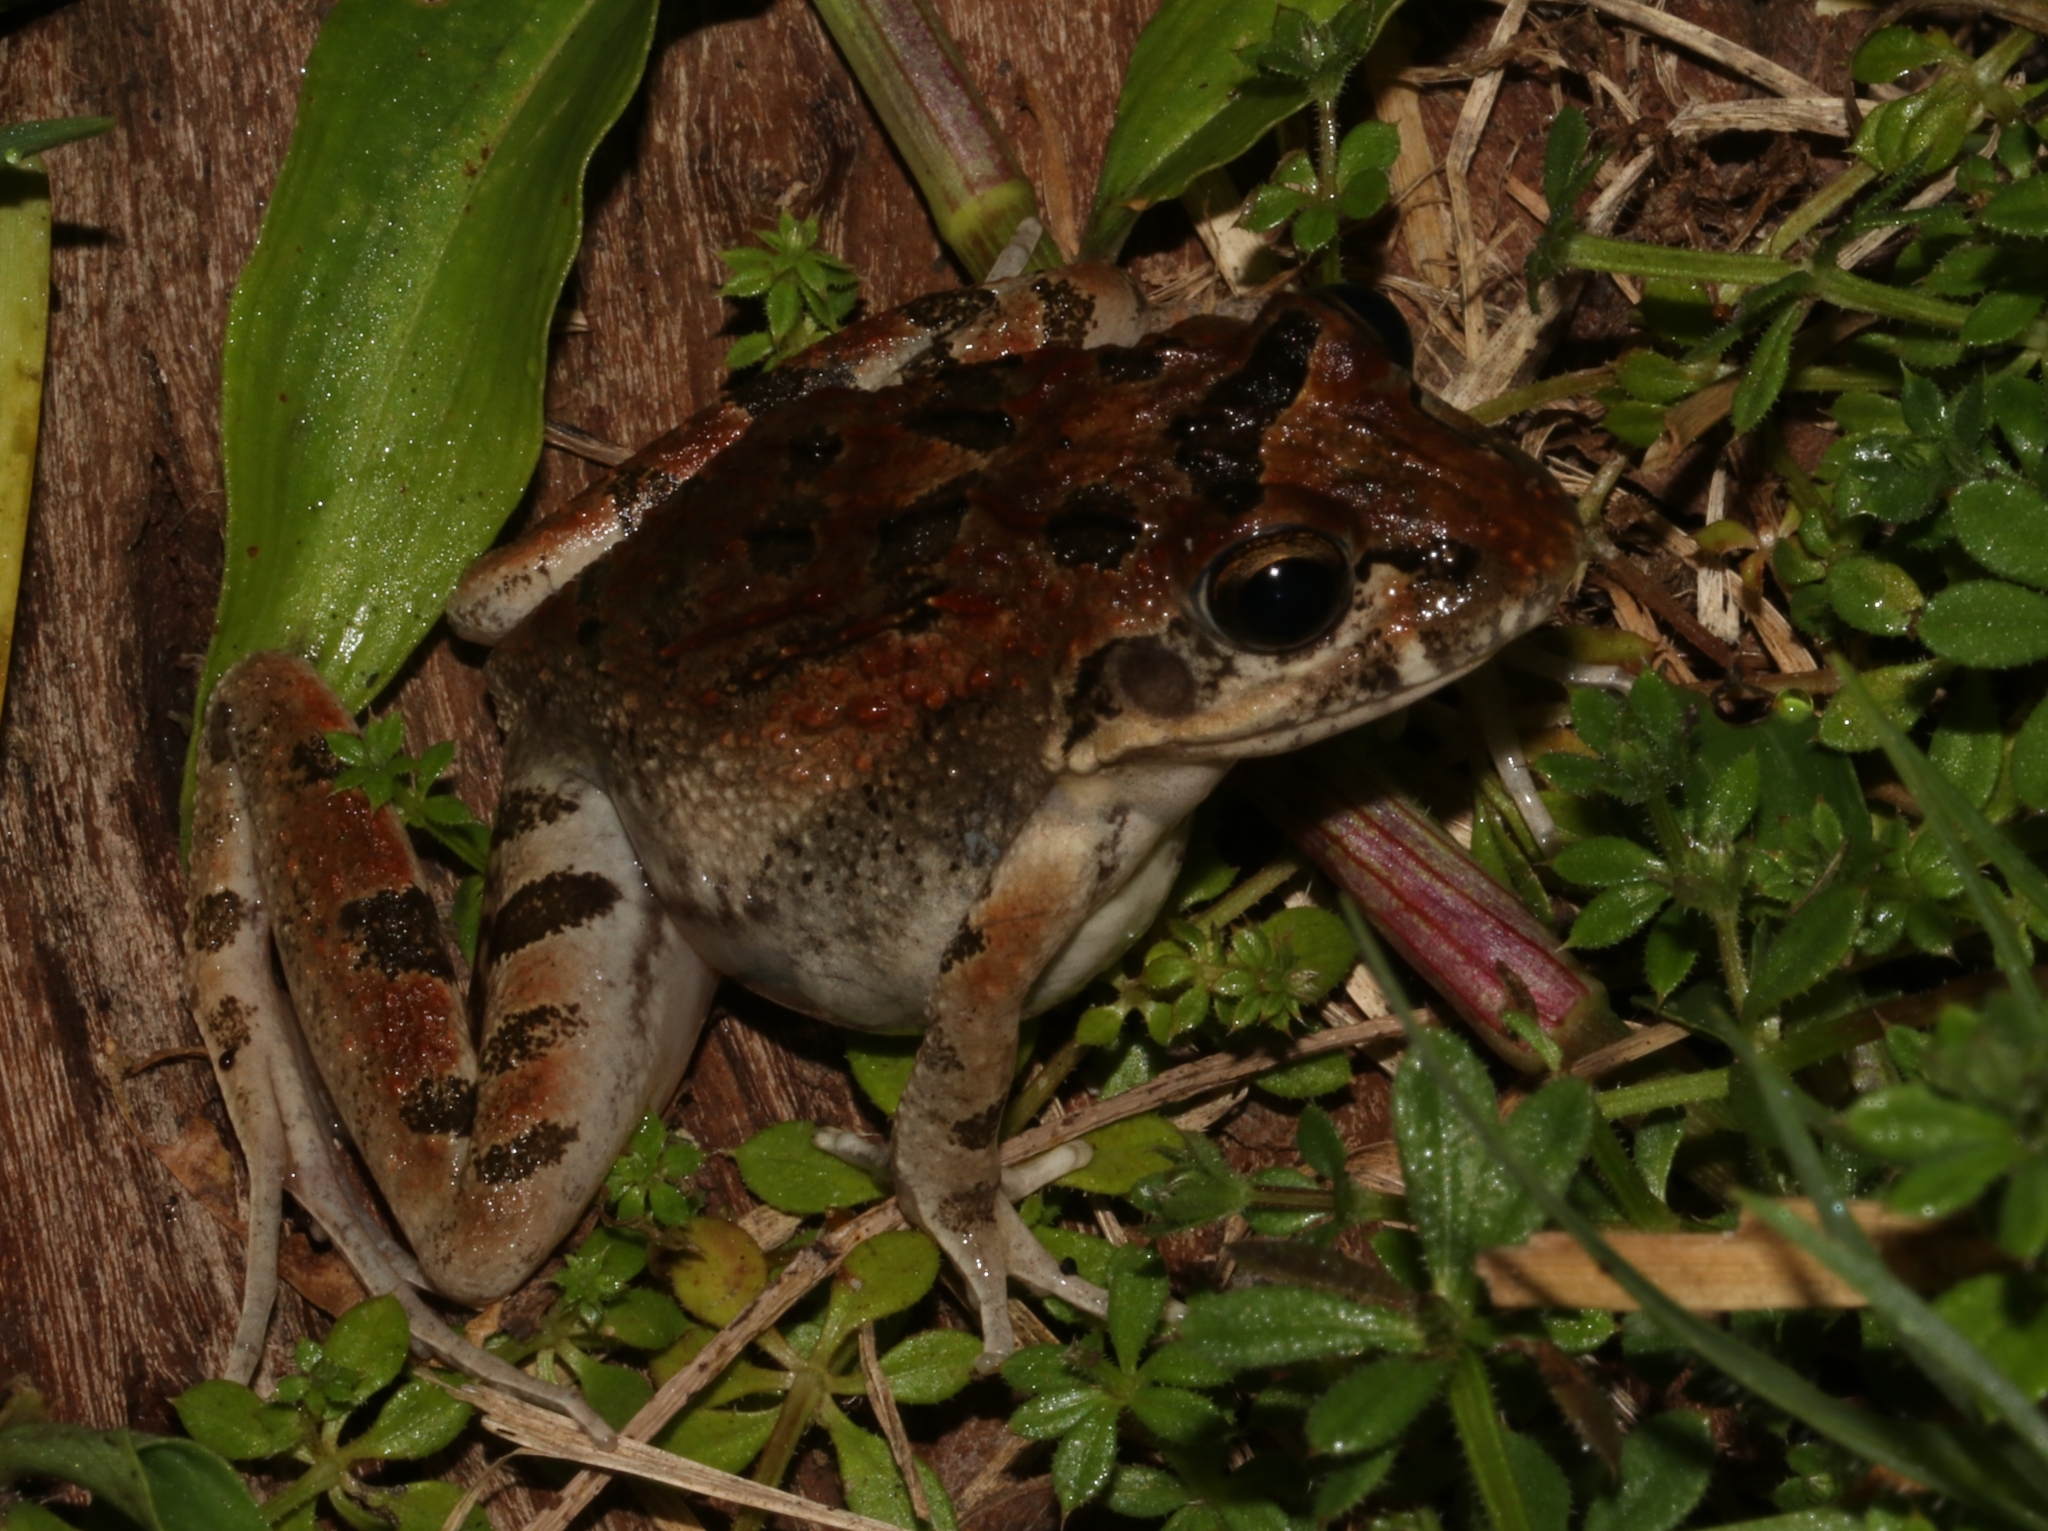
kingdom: Animalia
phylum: Chordata
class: Amphibia
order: Anura
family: Pyxicephalidae
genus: Strongylopus
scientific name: Strongylopus grayii
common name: Gray's stream frog
